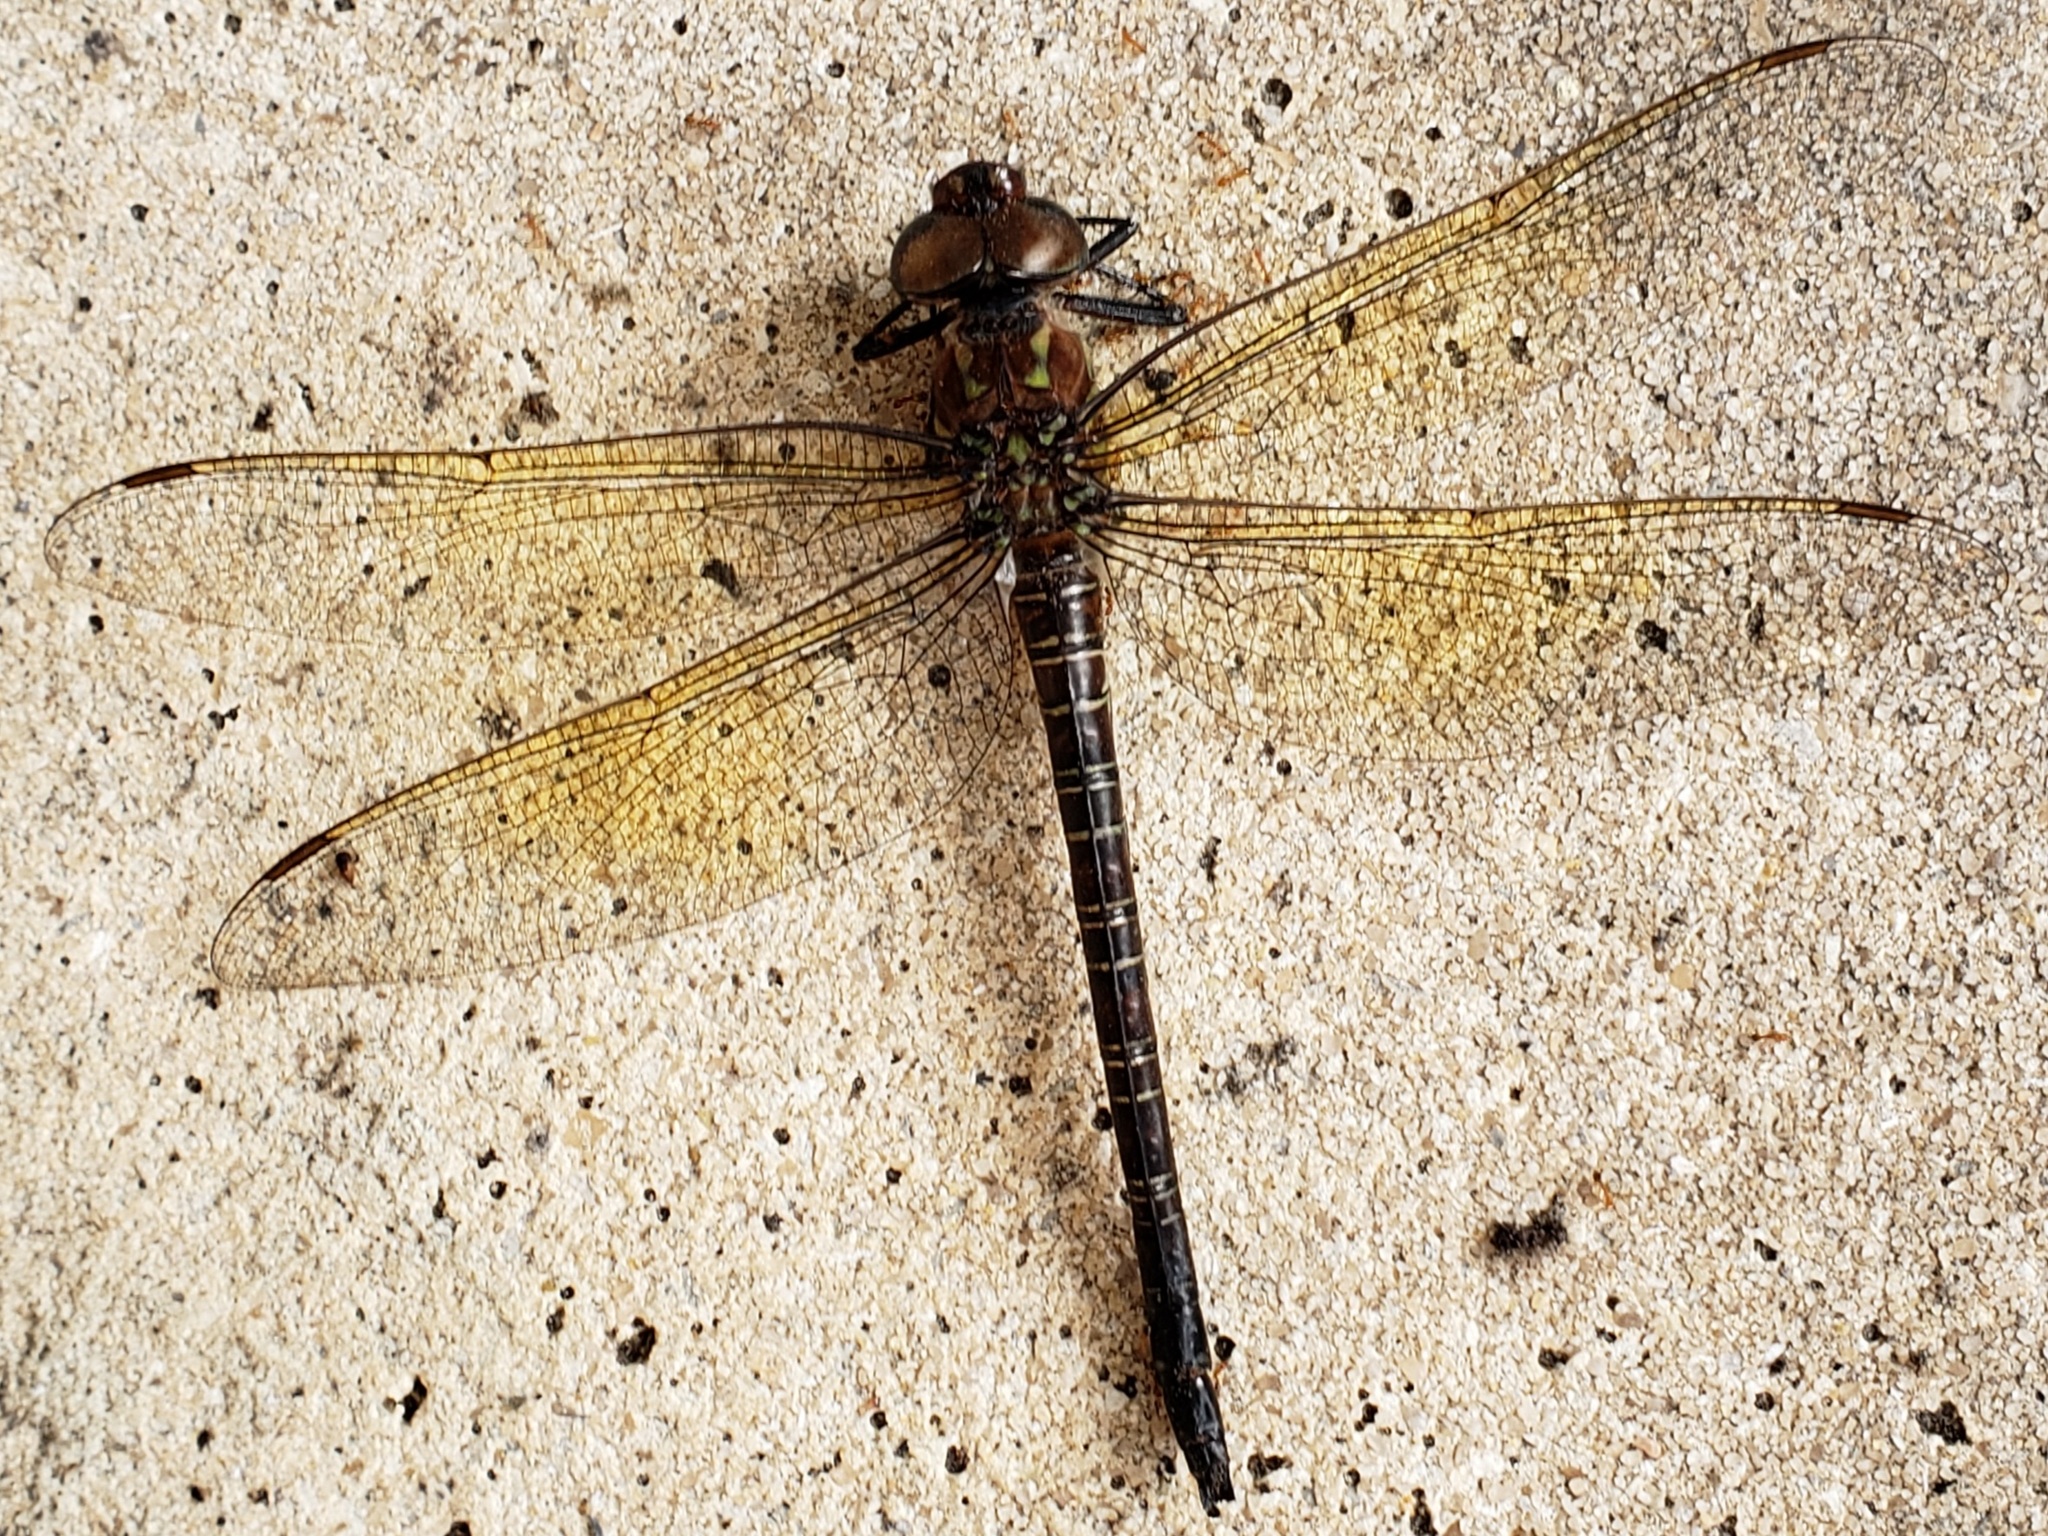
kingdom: Animalia
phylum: Arthropoda
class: Insecta
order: Odonata
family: Aeshnidae
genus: Epiaeschna
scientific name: Epiaeschna heros
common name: Swamp darner
